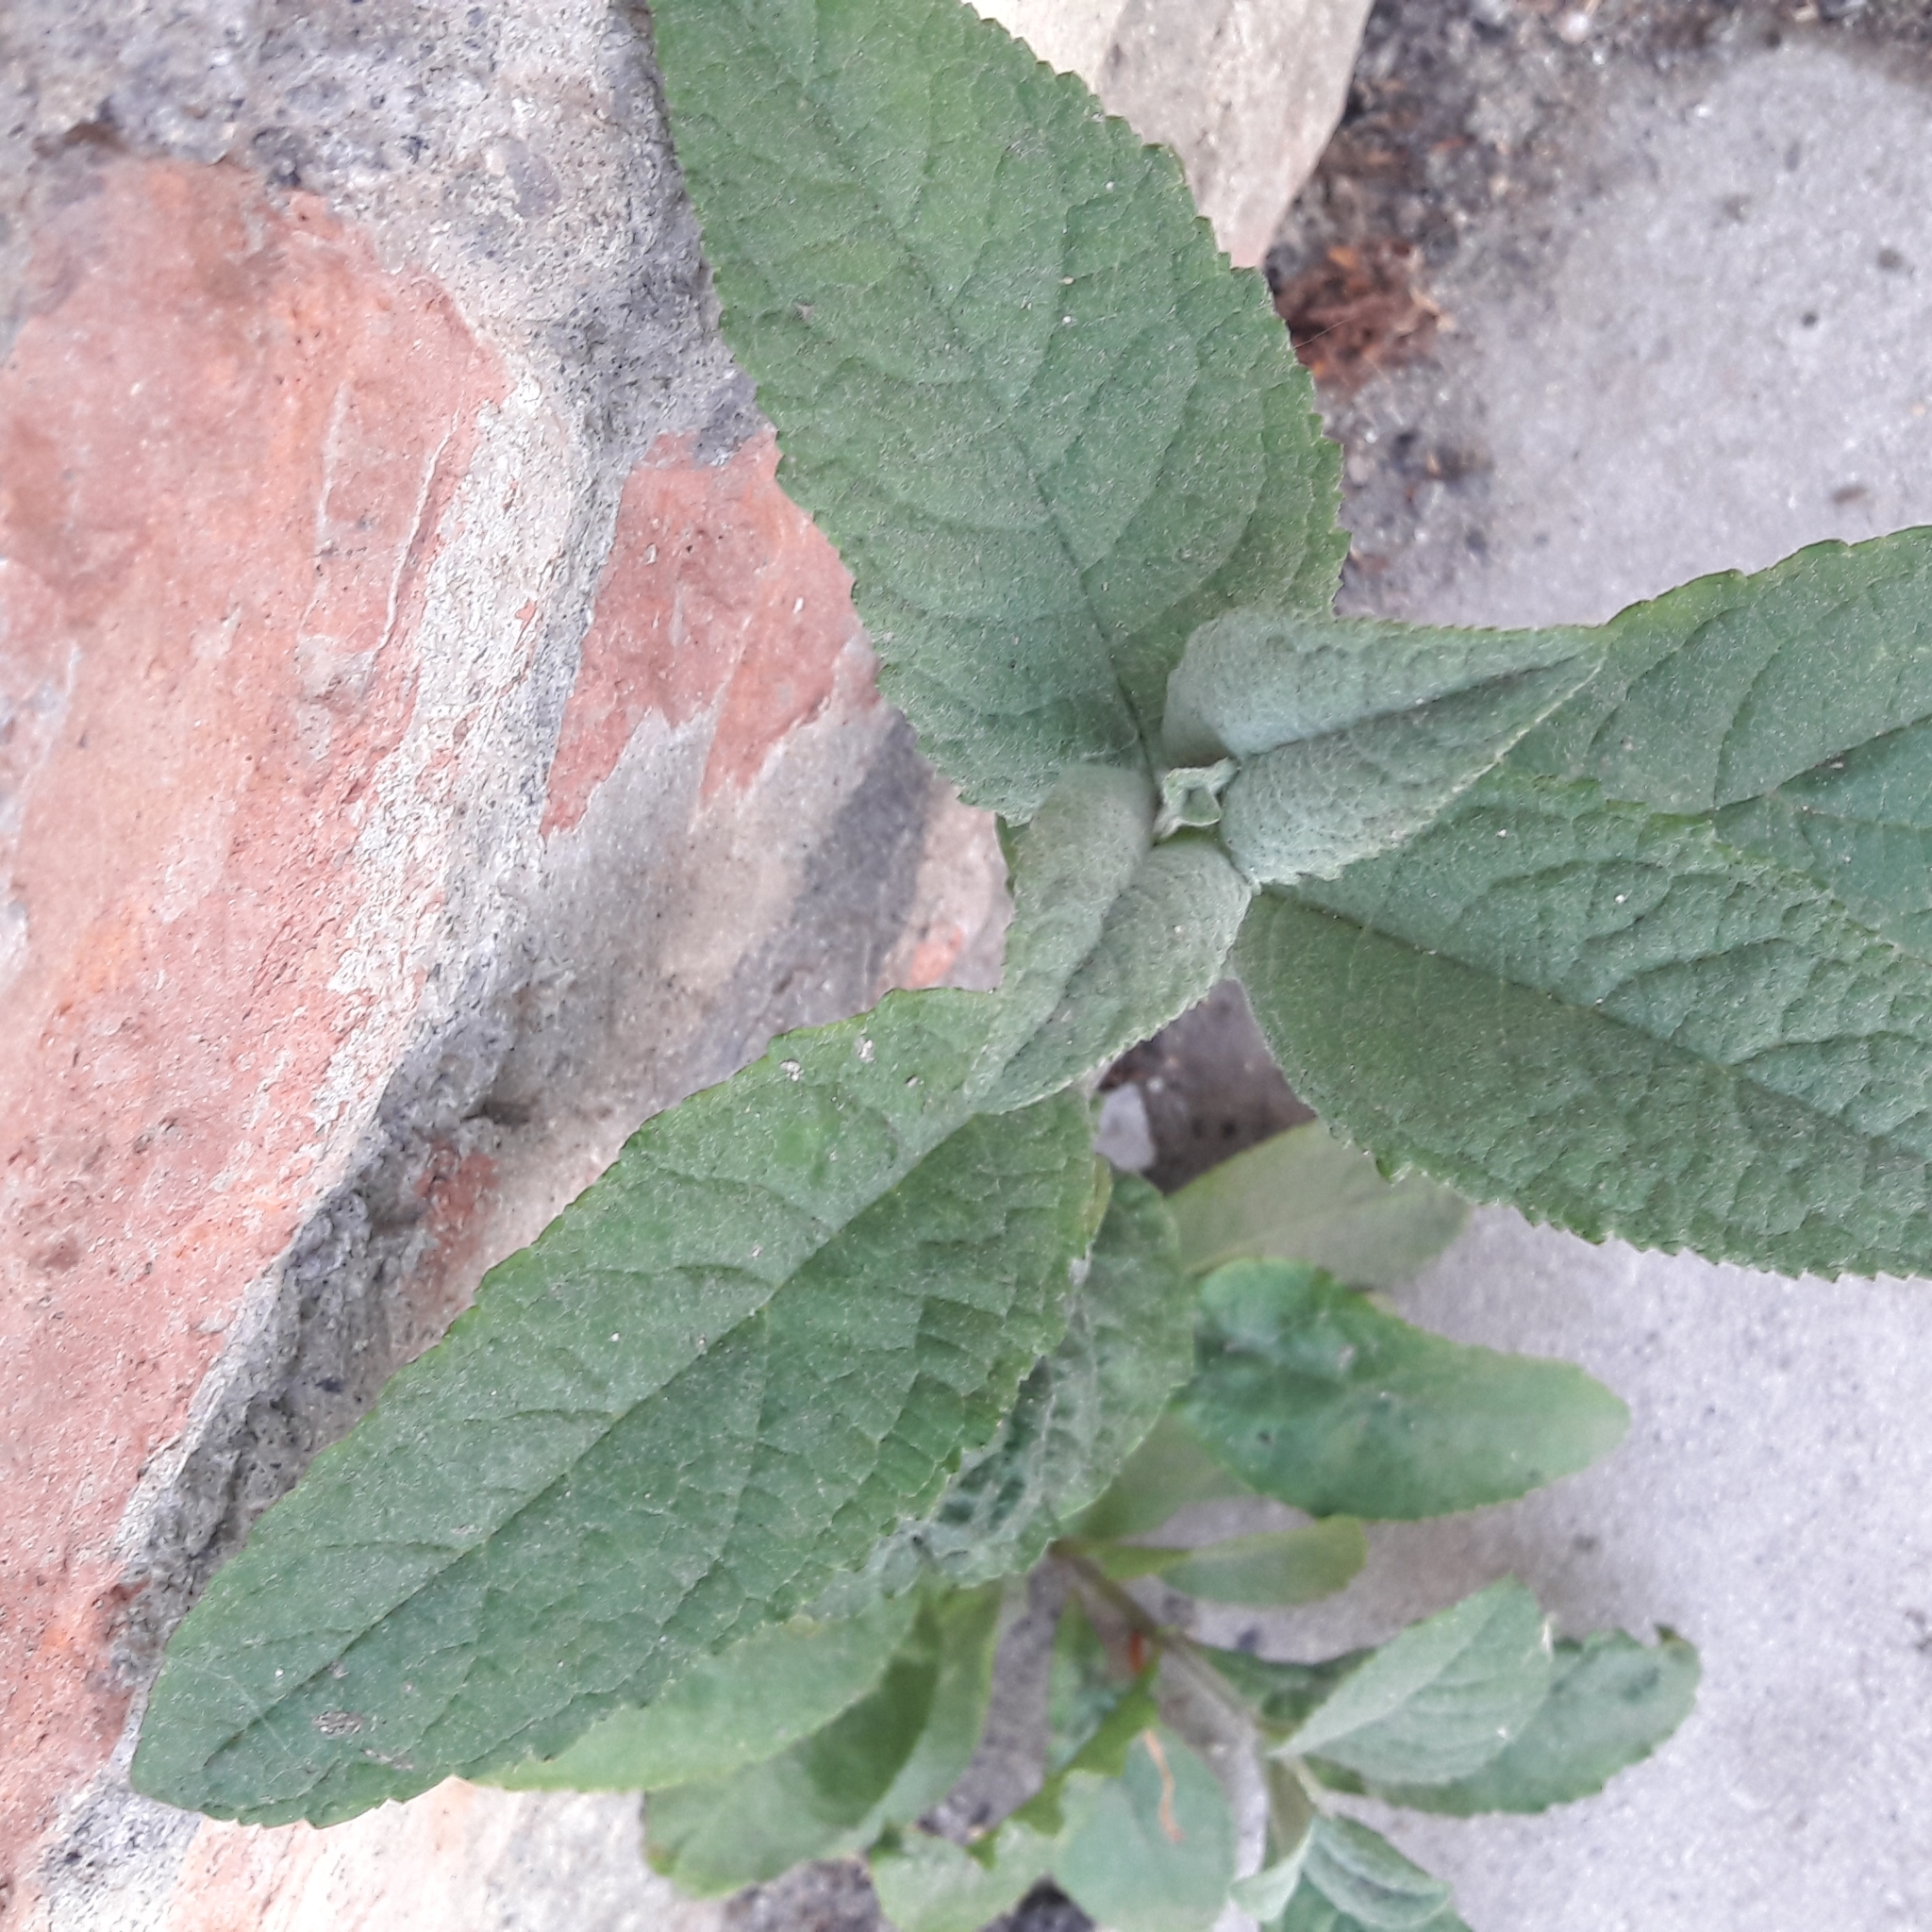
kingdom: Plantae
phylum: Tracheophyta
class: Magnoliopsida
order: Lamiales
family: Scrophulariaceae
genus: Buddleja
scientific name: Buddleja davidii
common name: Butterfly-bush
